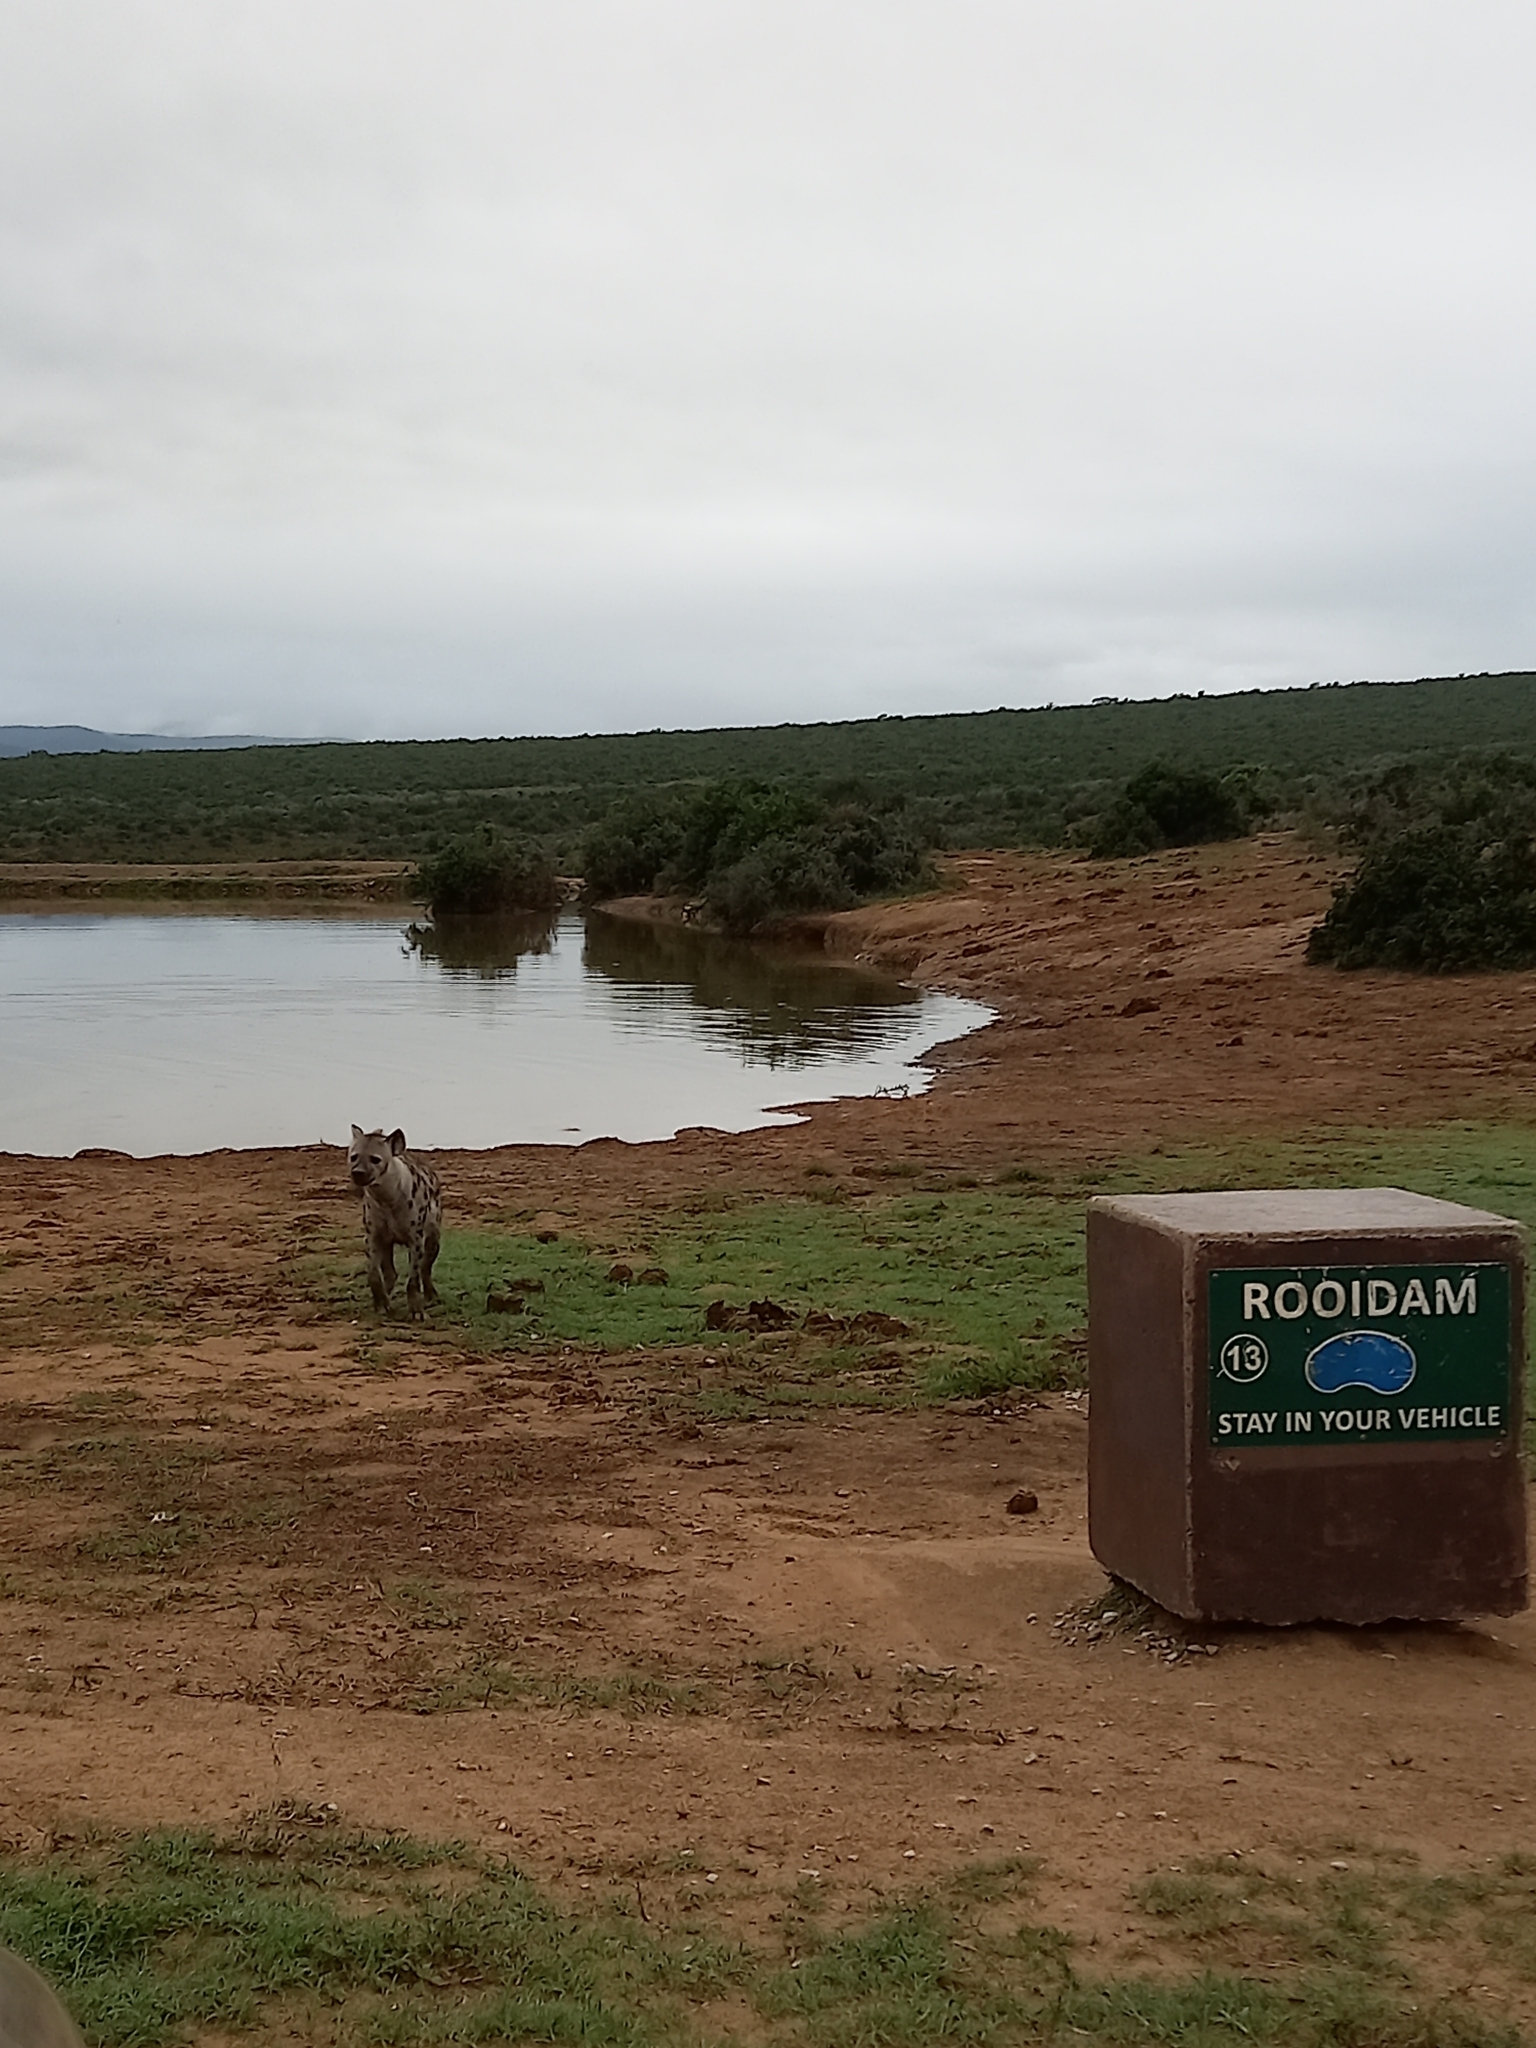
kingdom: Animalia
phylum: Chordata
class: Mammalia
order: Carnivora
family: Hyaenidae
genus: Crocuta
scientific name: Crocuta crocuta
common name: Spotted hyaena
